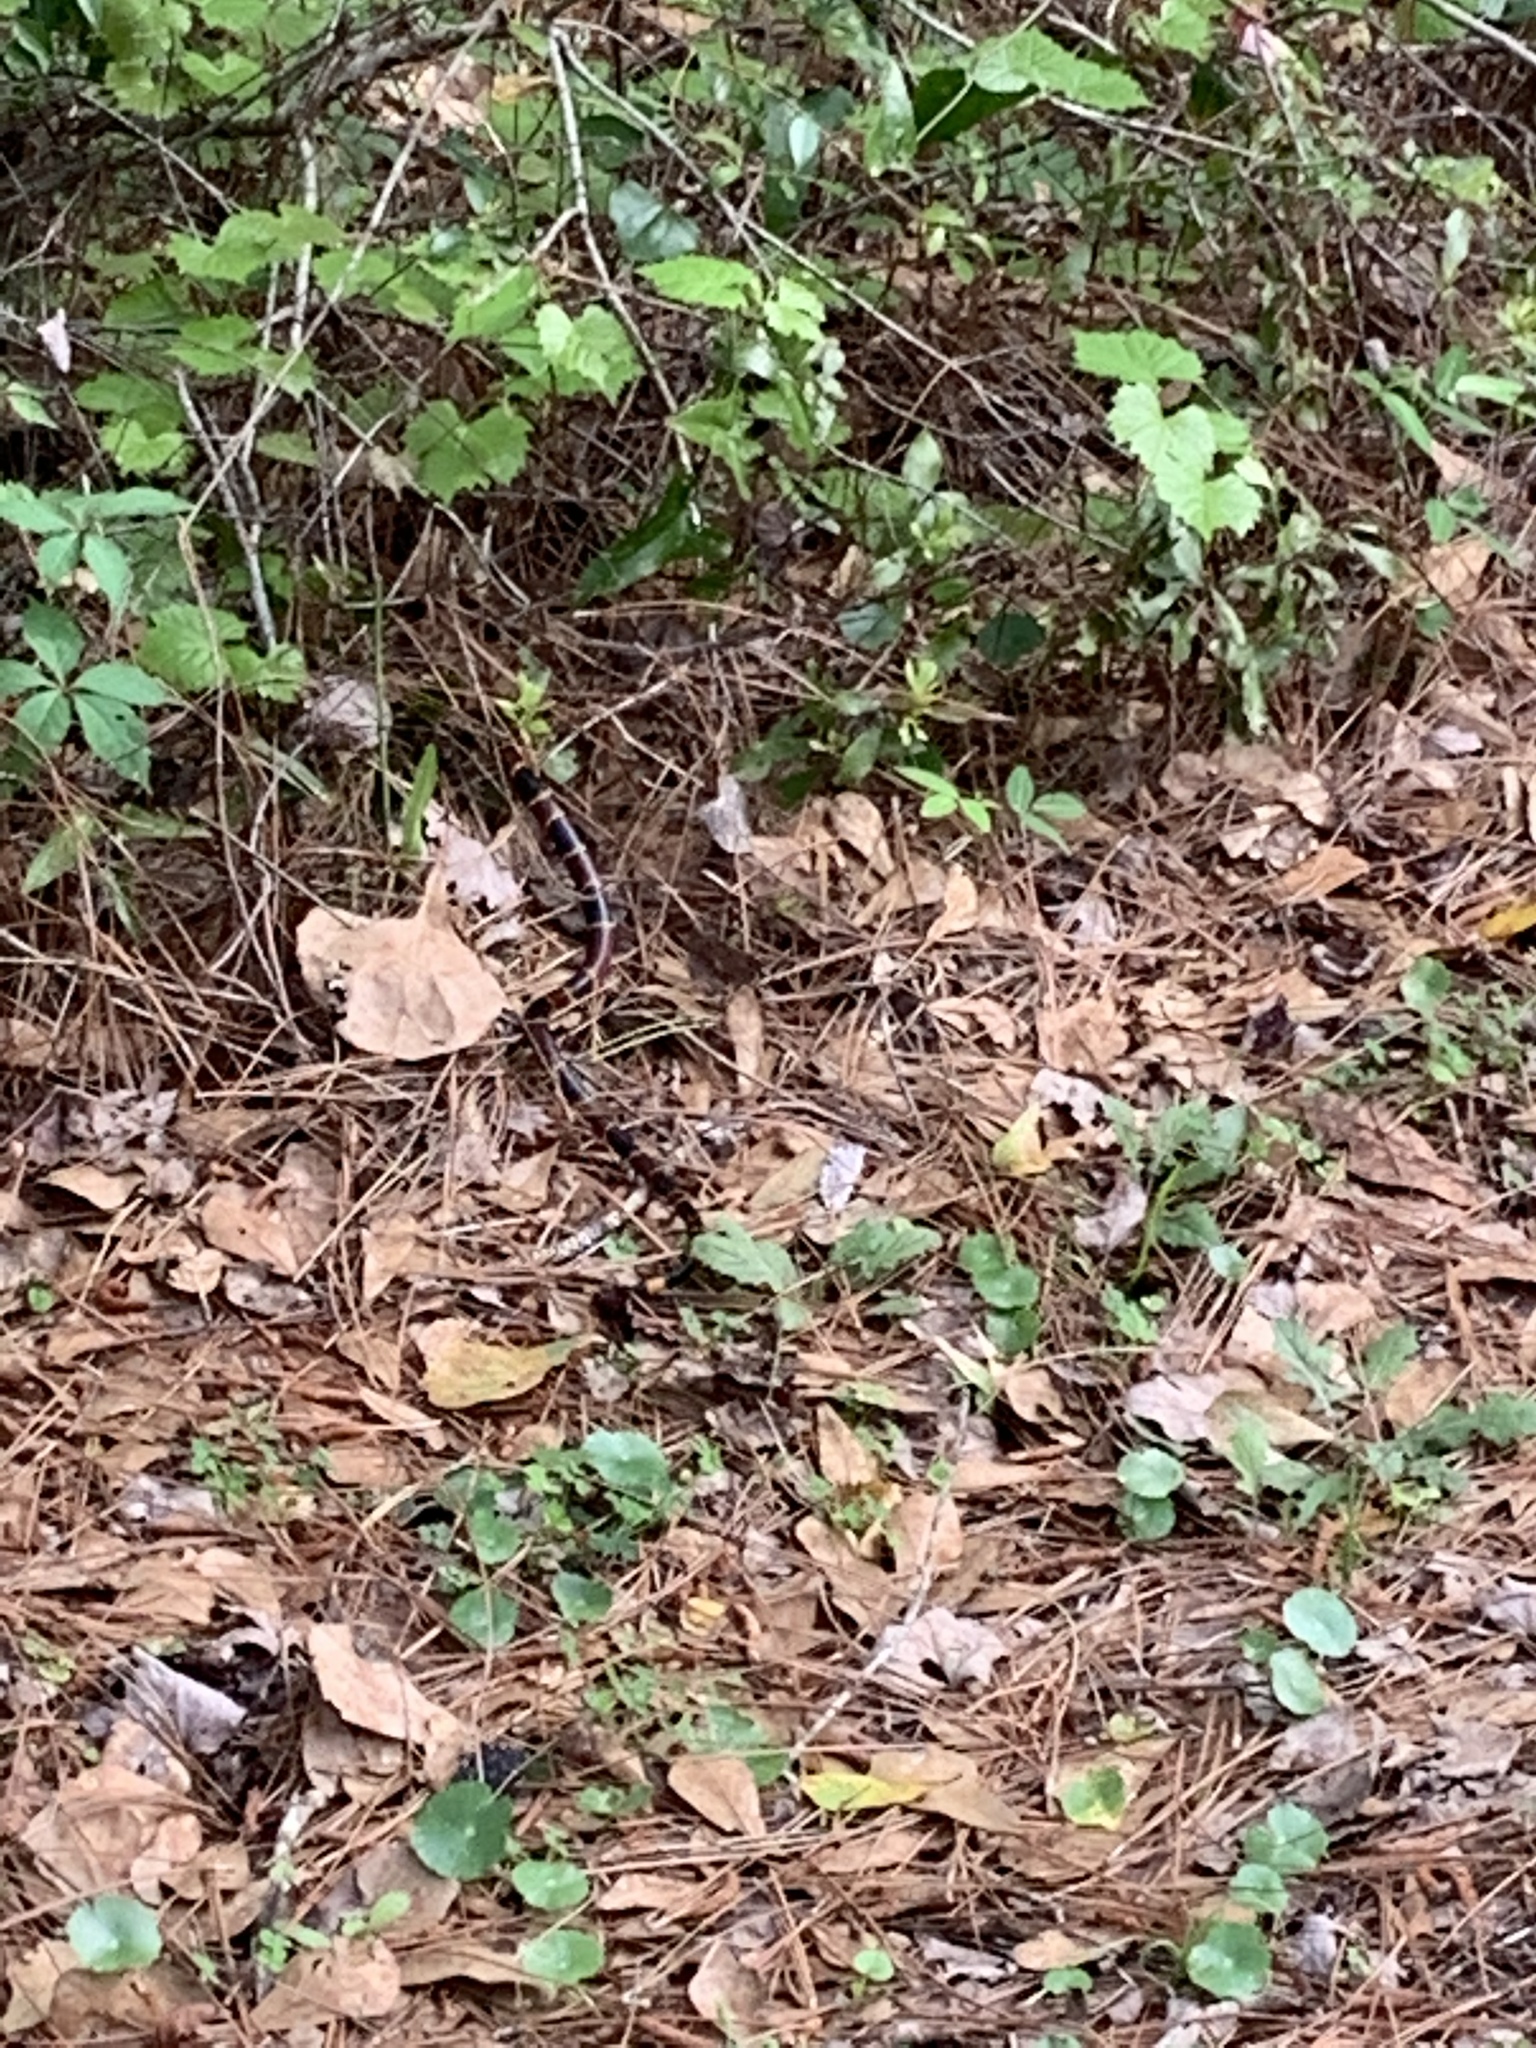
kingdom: Animalia
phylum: Chordata
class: Squamata
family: Elapidae
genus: Micrurus
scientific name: Micrurus fulvius
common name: Eastern coral snake
